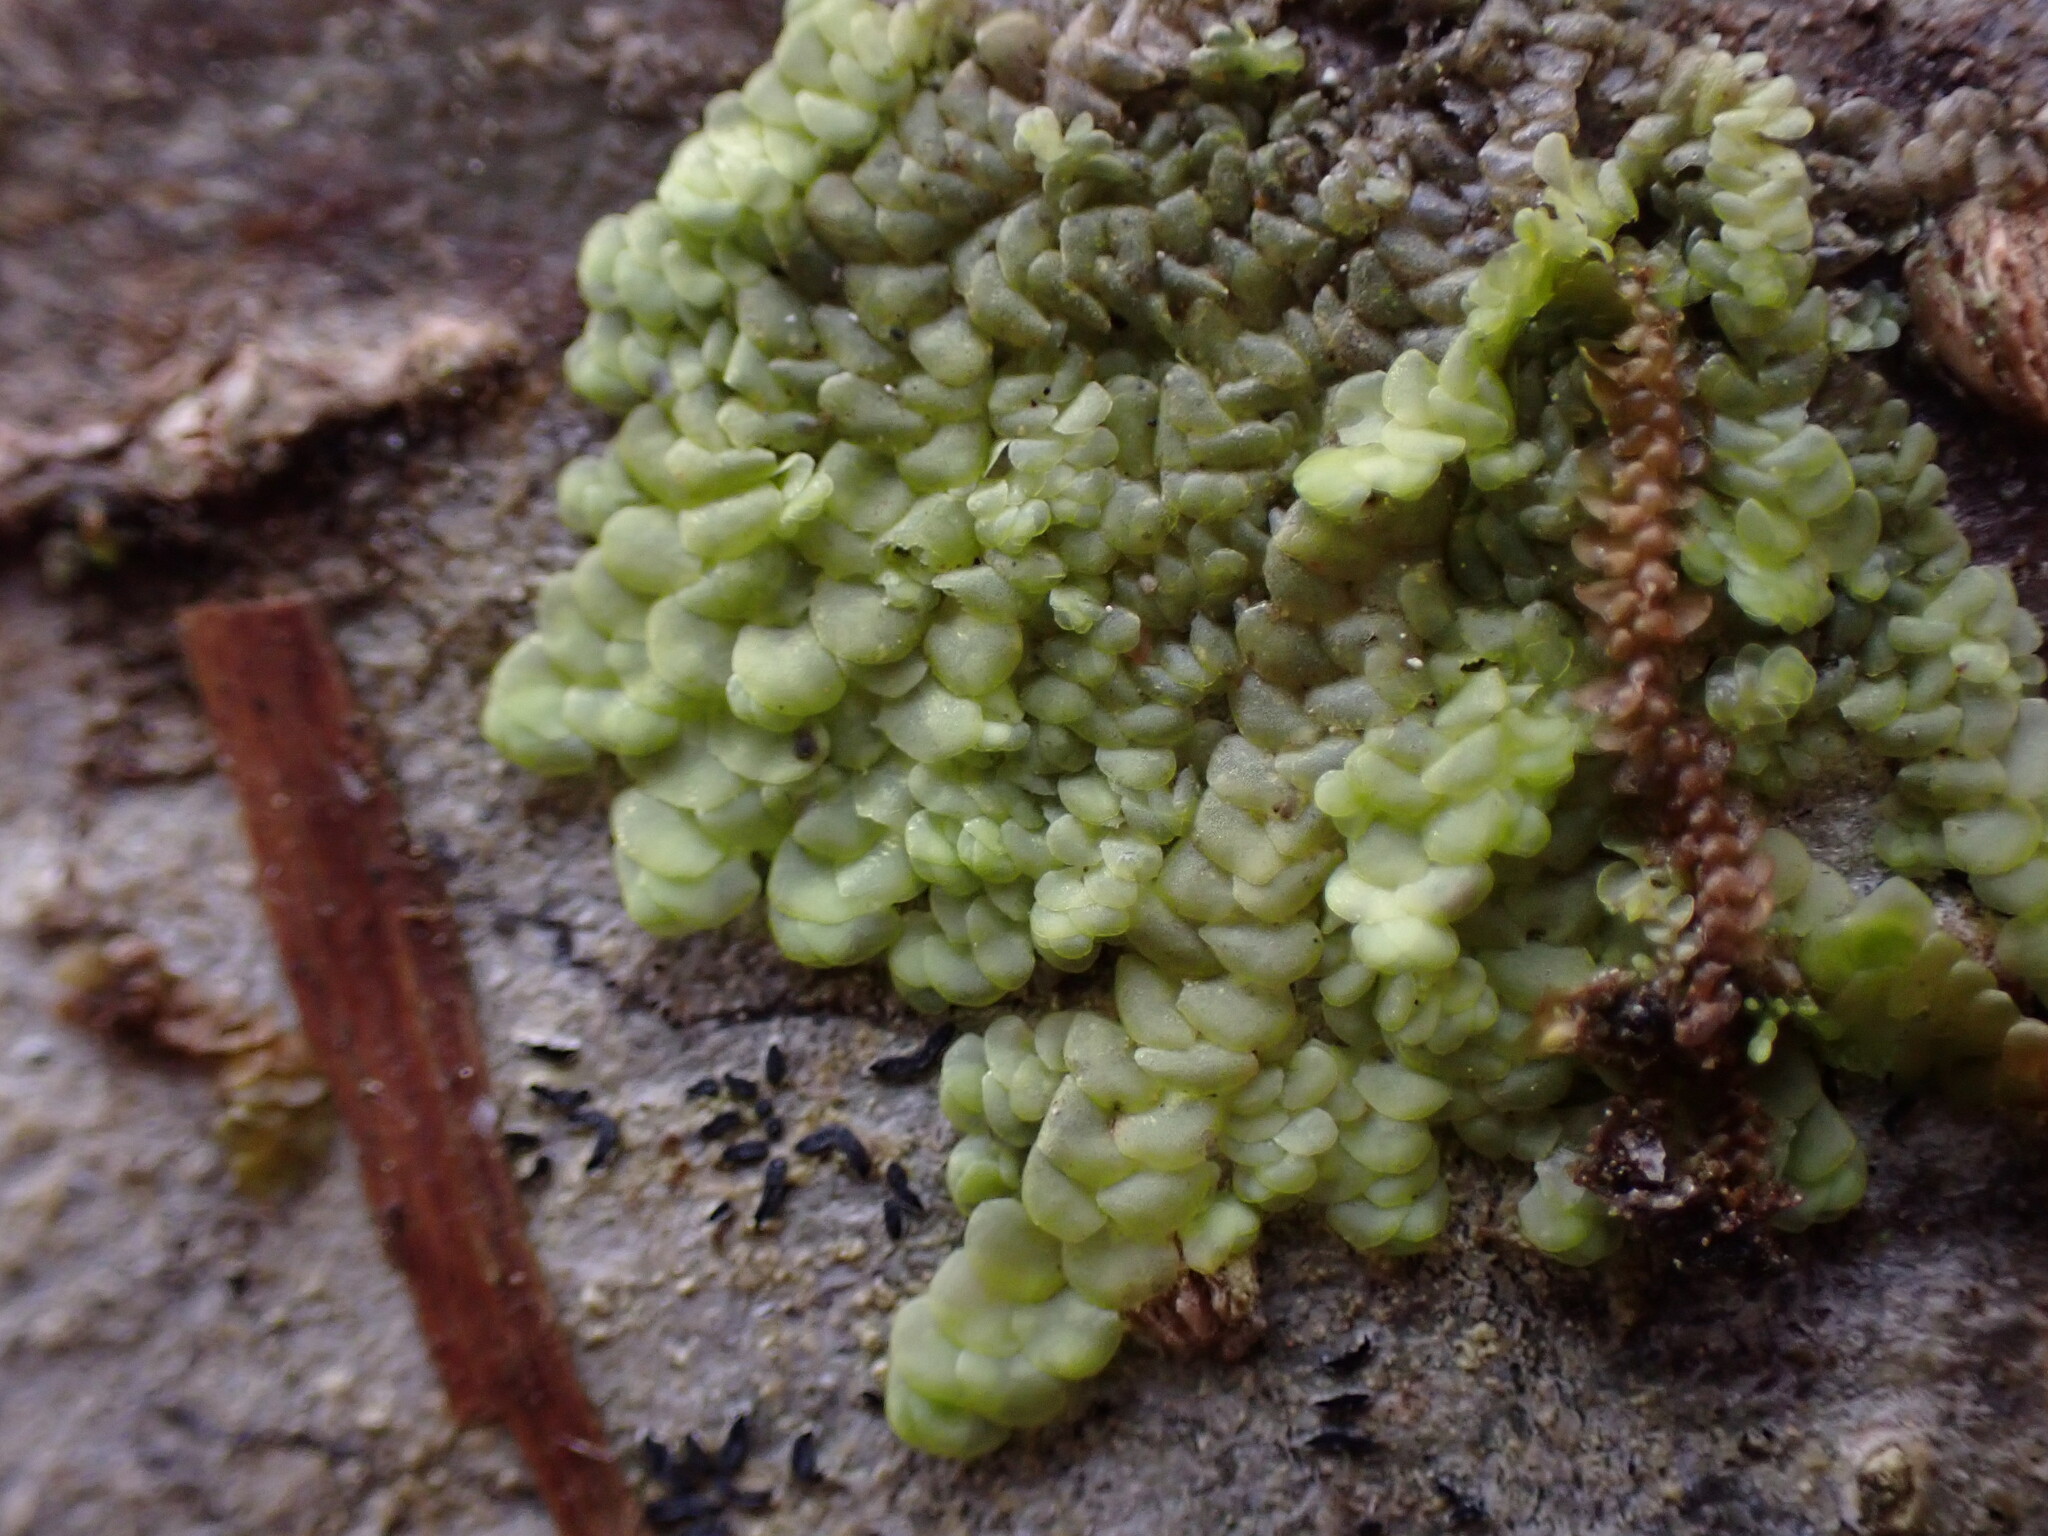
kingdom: Plantae
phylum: Marchantiophyta
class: Jungermanniopsida
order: Porellales
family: Radulaceae
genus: Radula
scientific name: Radula complanata
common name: Flat-leaved scalewort
